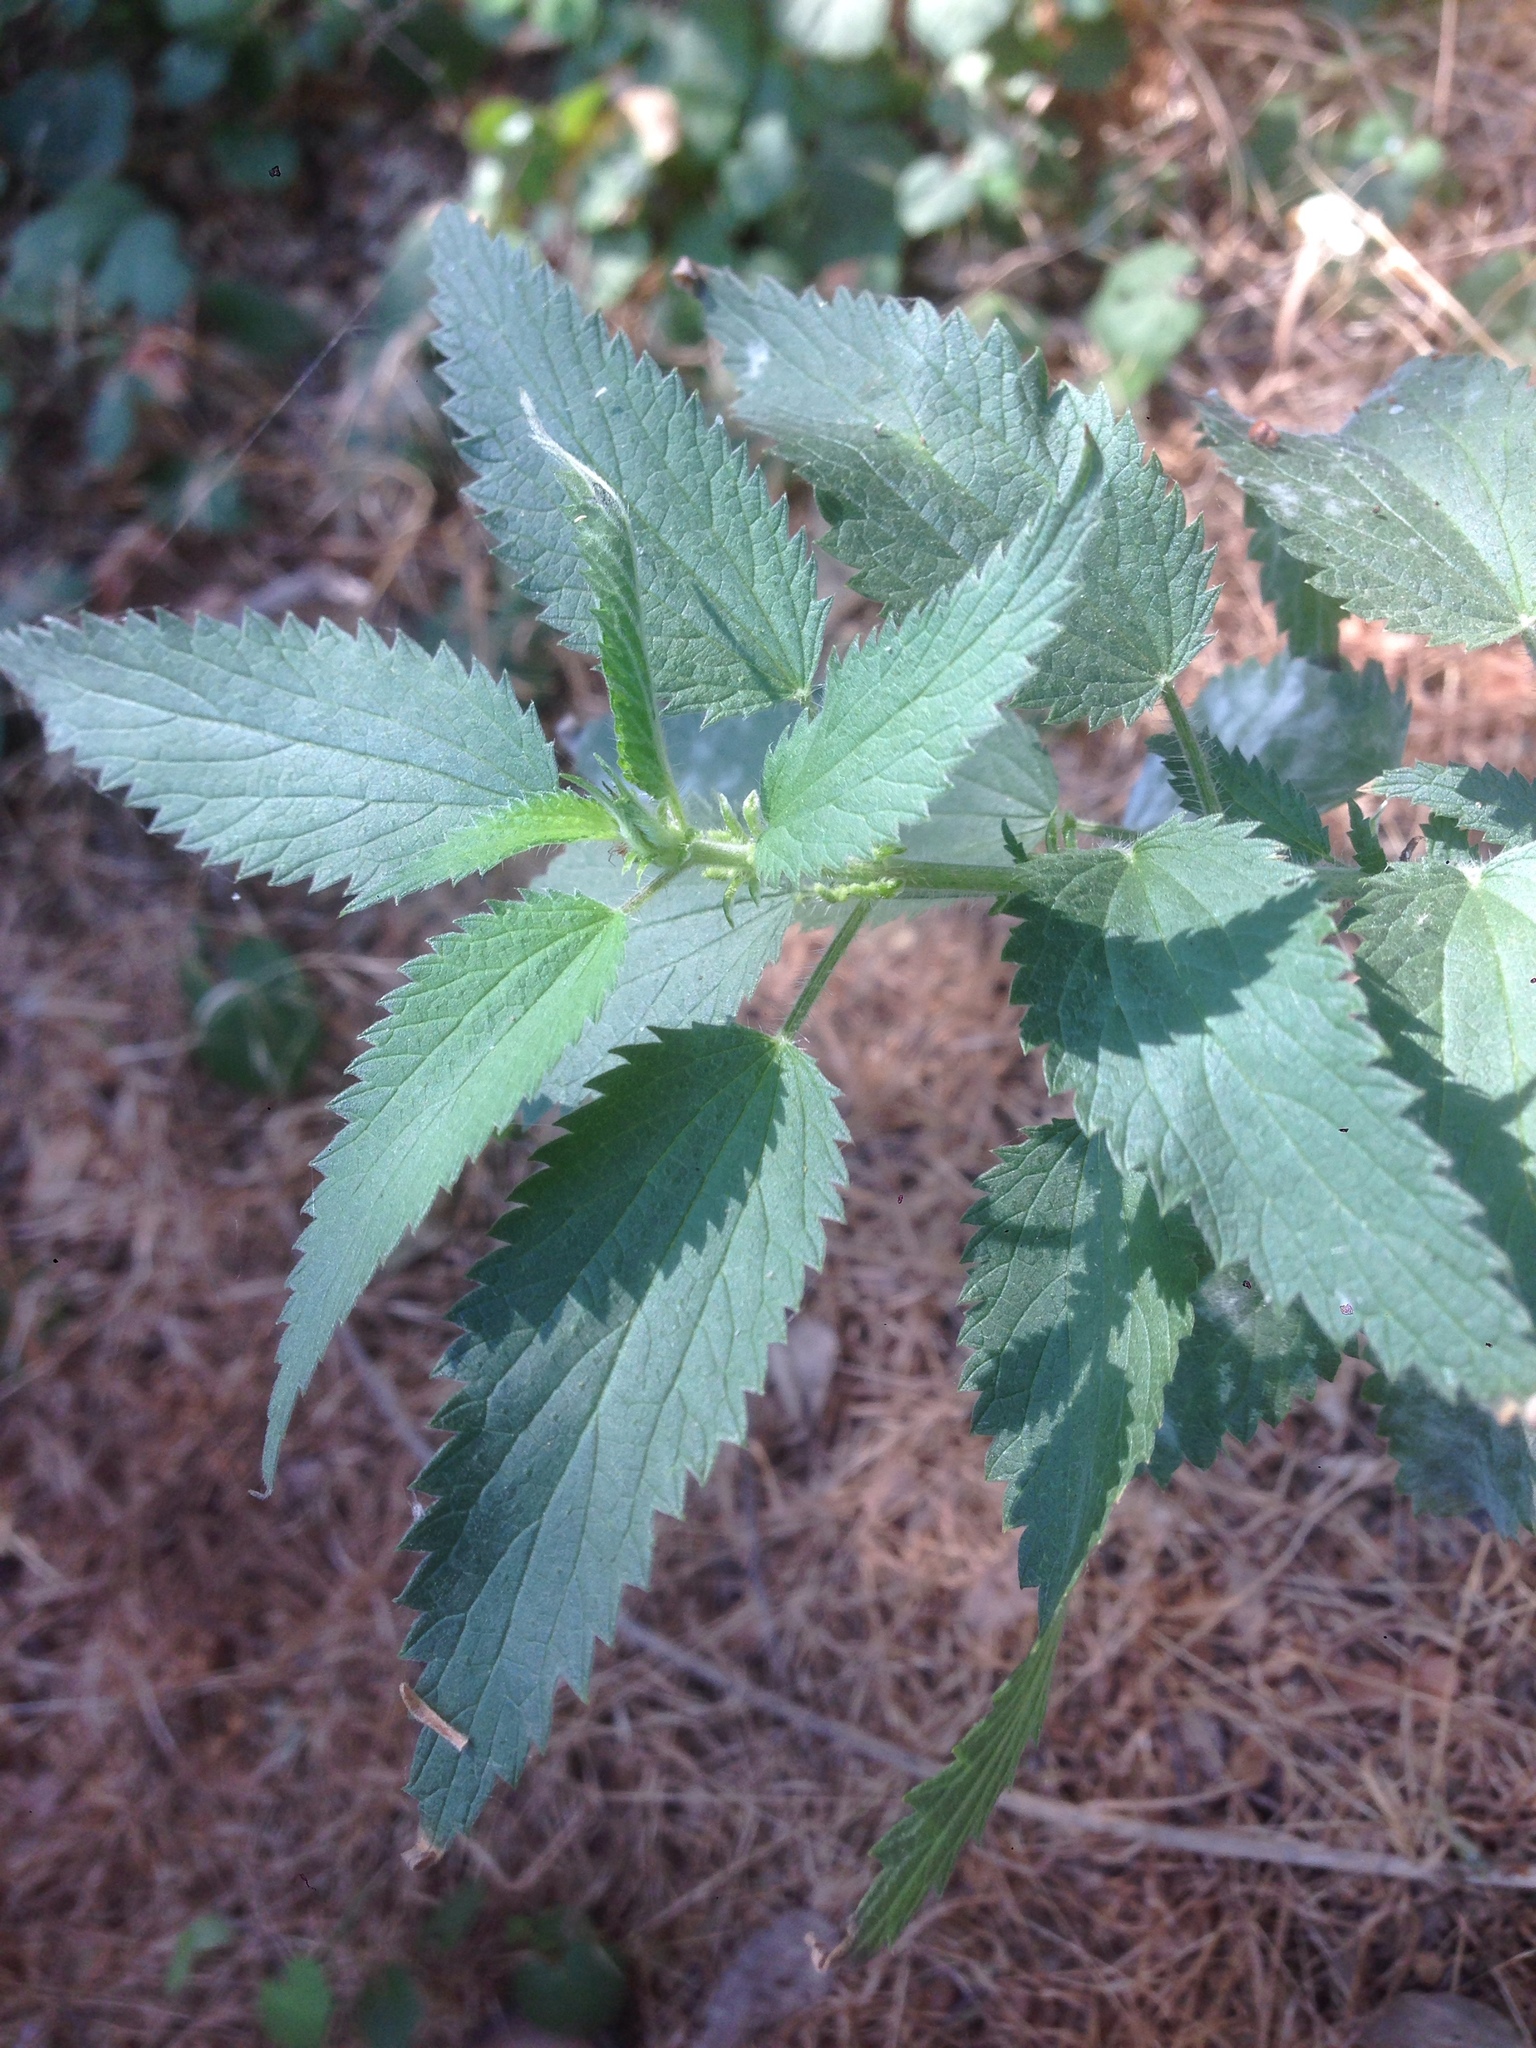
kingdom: Plantae
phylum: Tracheophyta
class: Magnoliopsida
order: Rosales
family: Urticaceae
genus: Urtica
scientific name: Urtica dioica
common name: Common nettle
